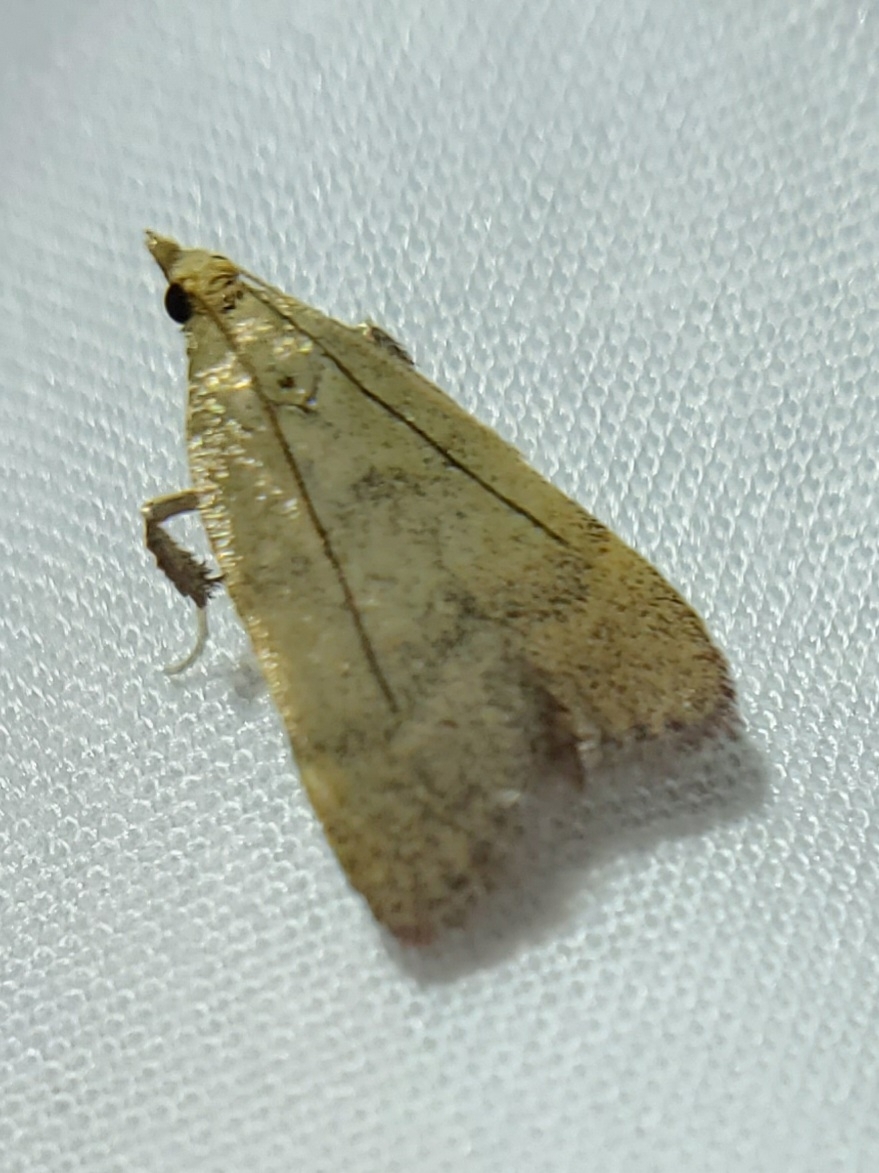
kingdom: Animalia
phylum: Arthropoda
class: Insecta
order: Lepidoptera
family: Pyralidae
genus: Condylolomia
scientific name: Condylolomia participialis
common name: Drab condylolomia moth
